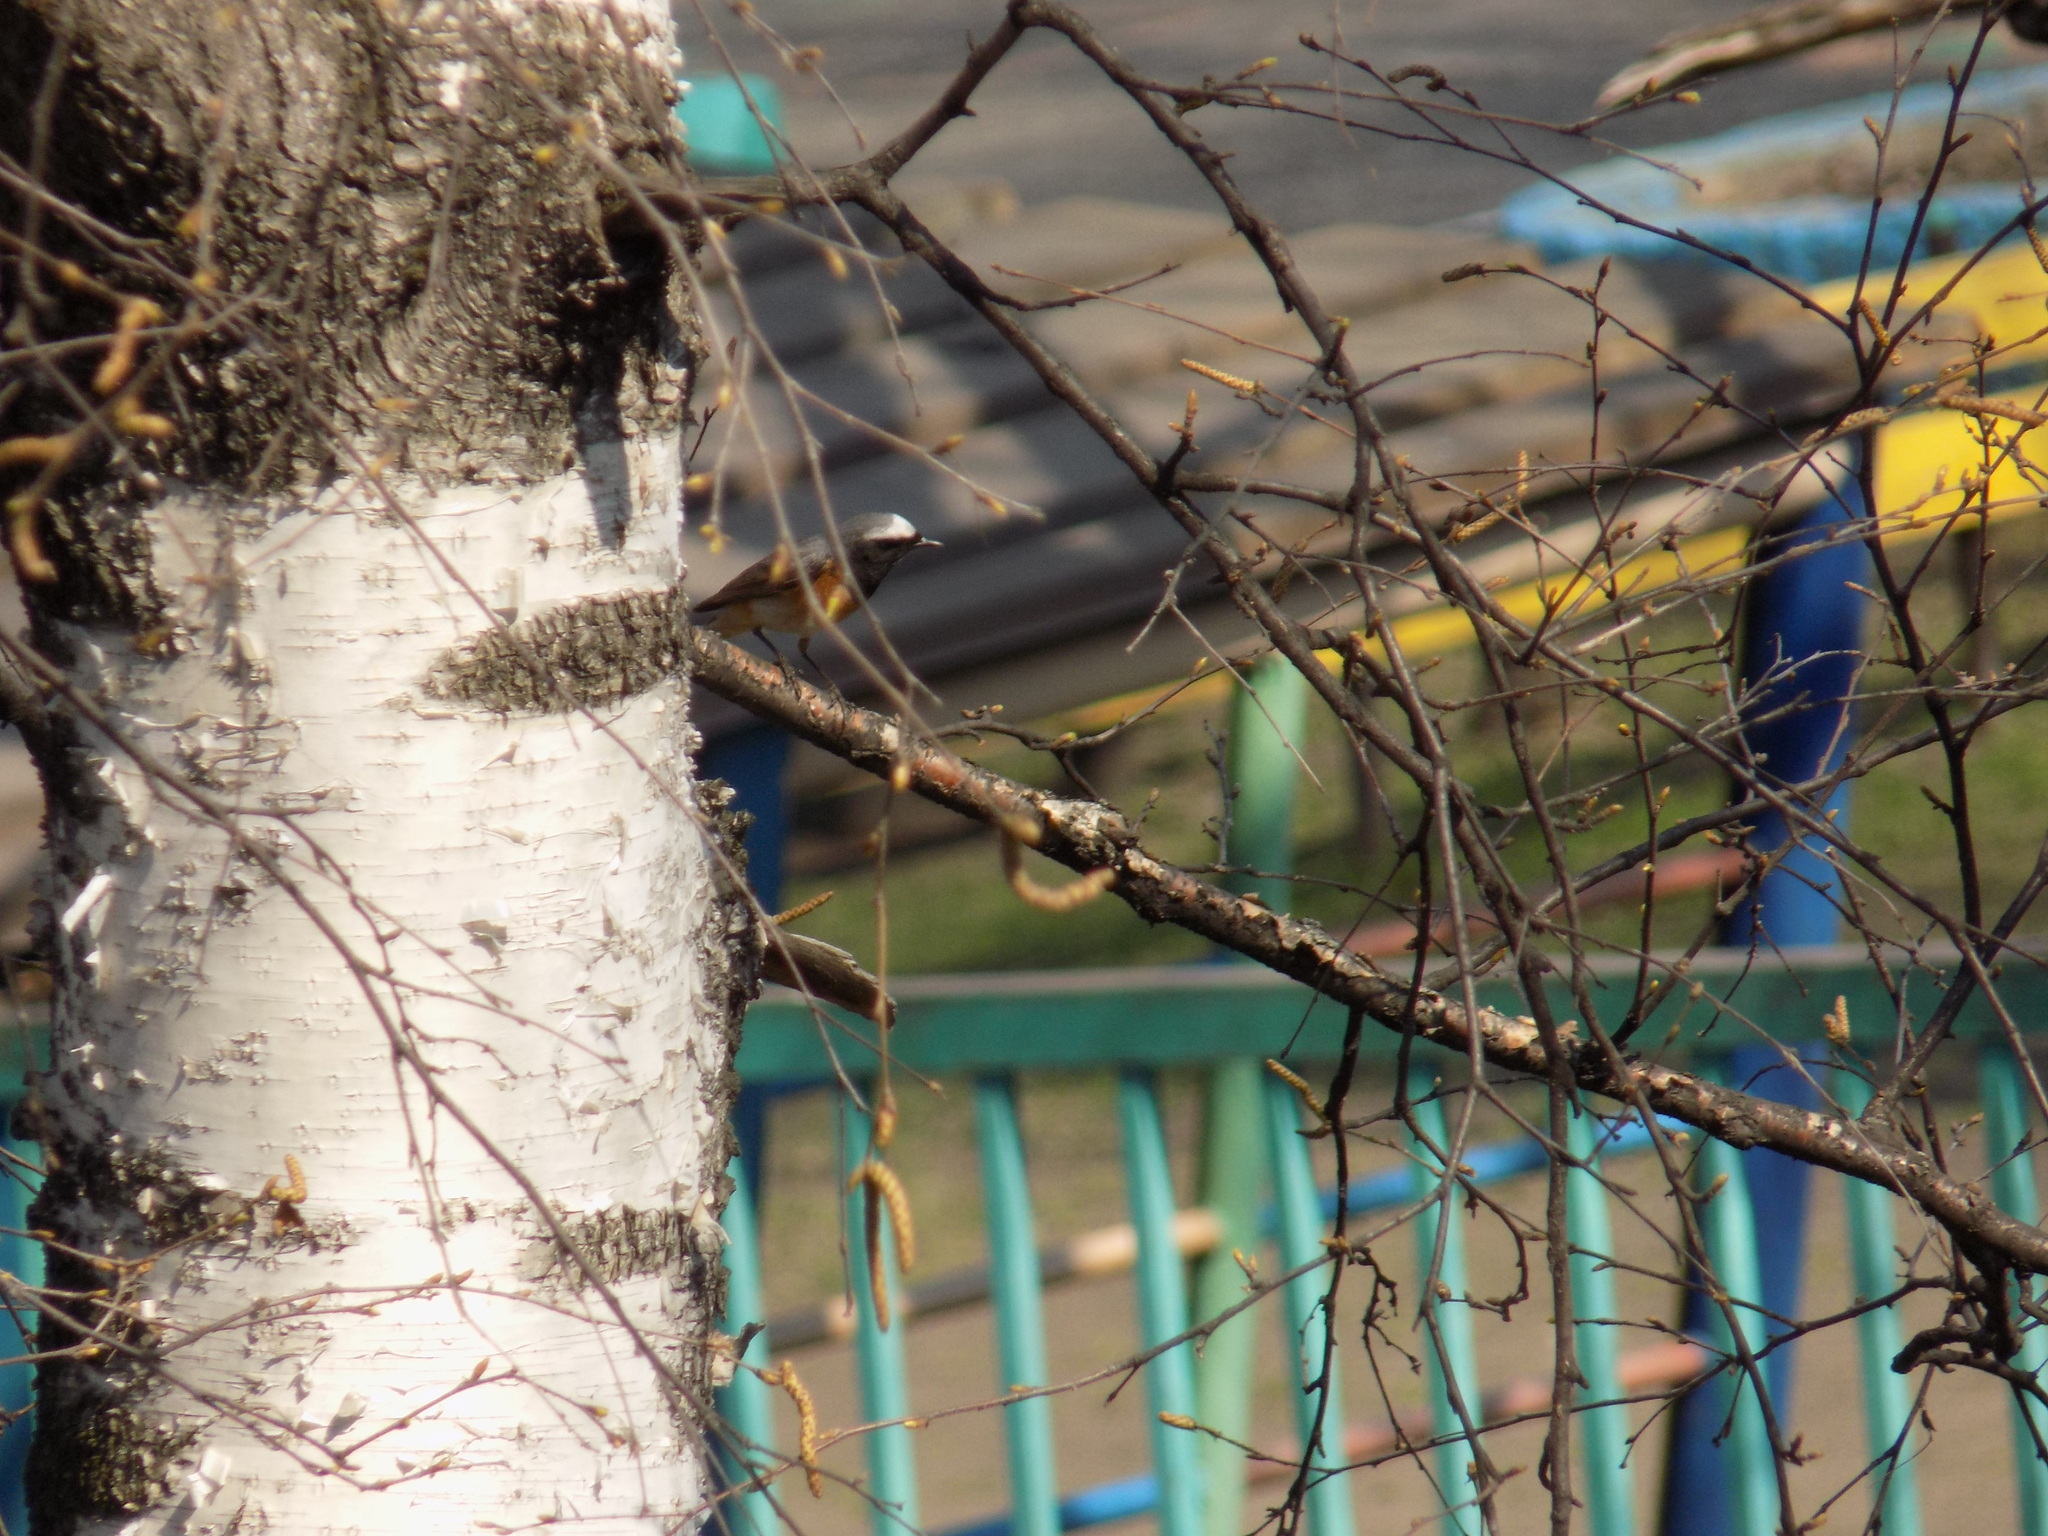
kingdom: Animalia
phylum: Chordata
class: Aves
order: Passeriformes
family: Muscicapidae
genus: Phoenicurus
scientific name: Phoenicurus phoenicurus
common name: Common redstart
